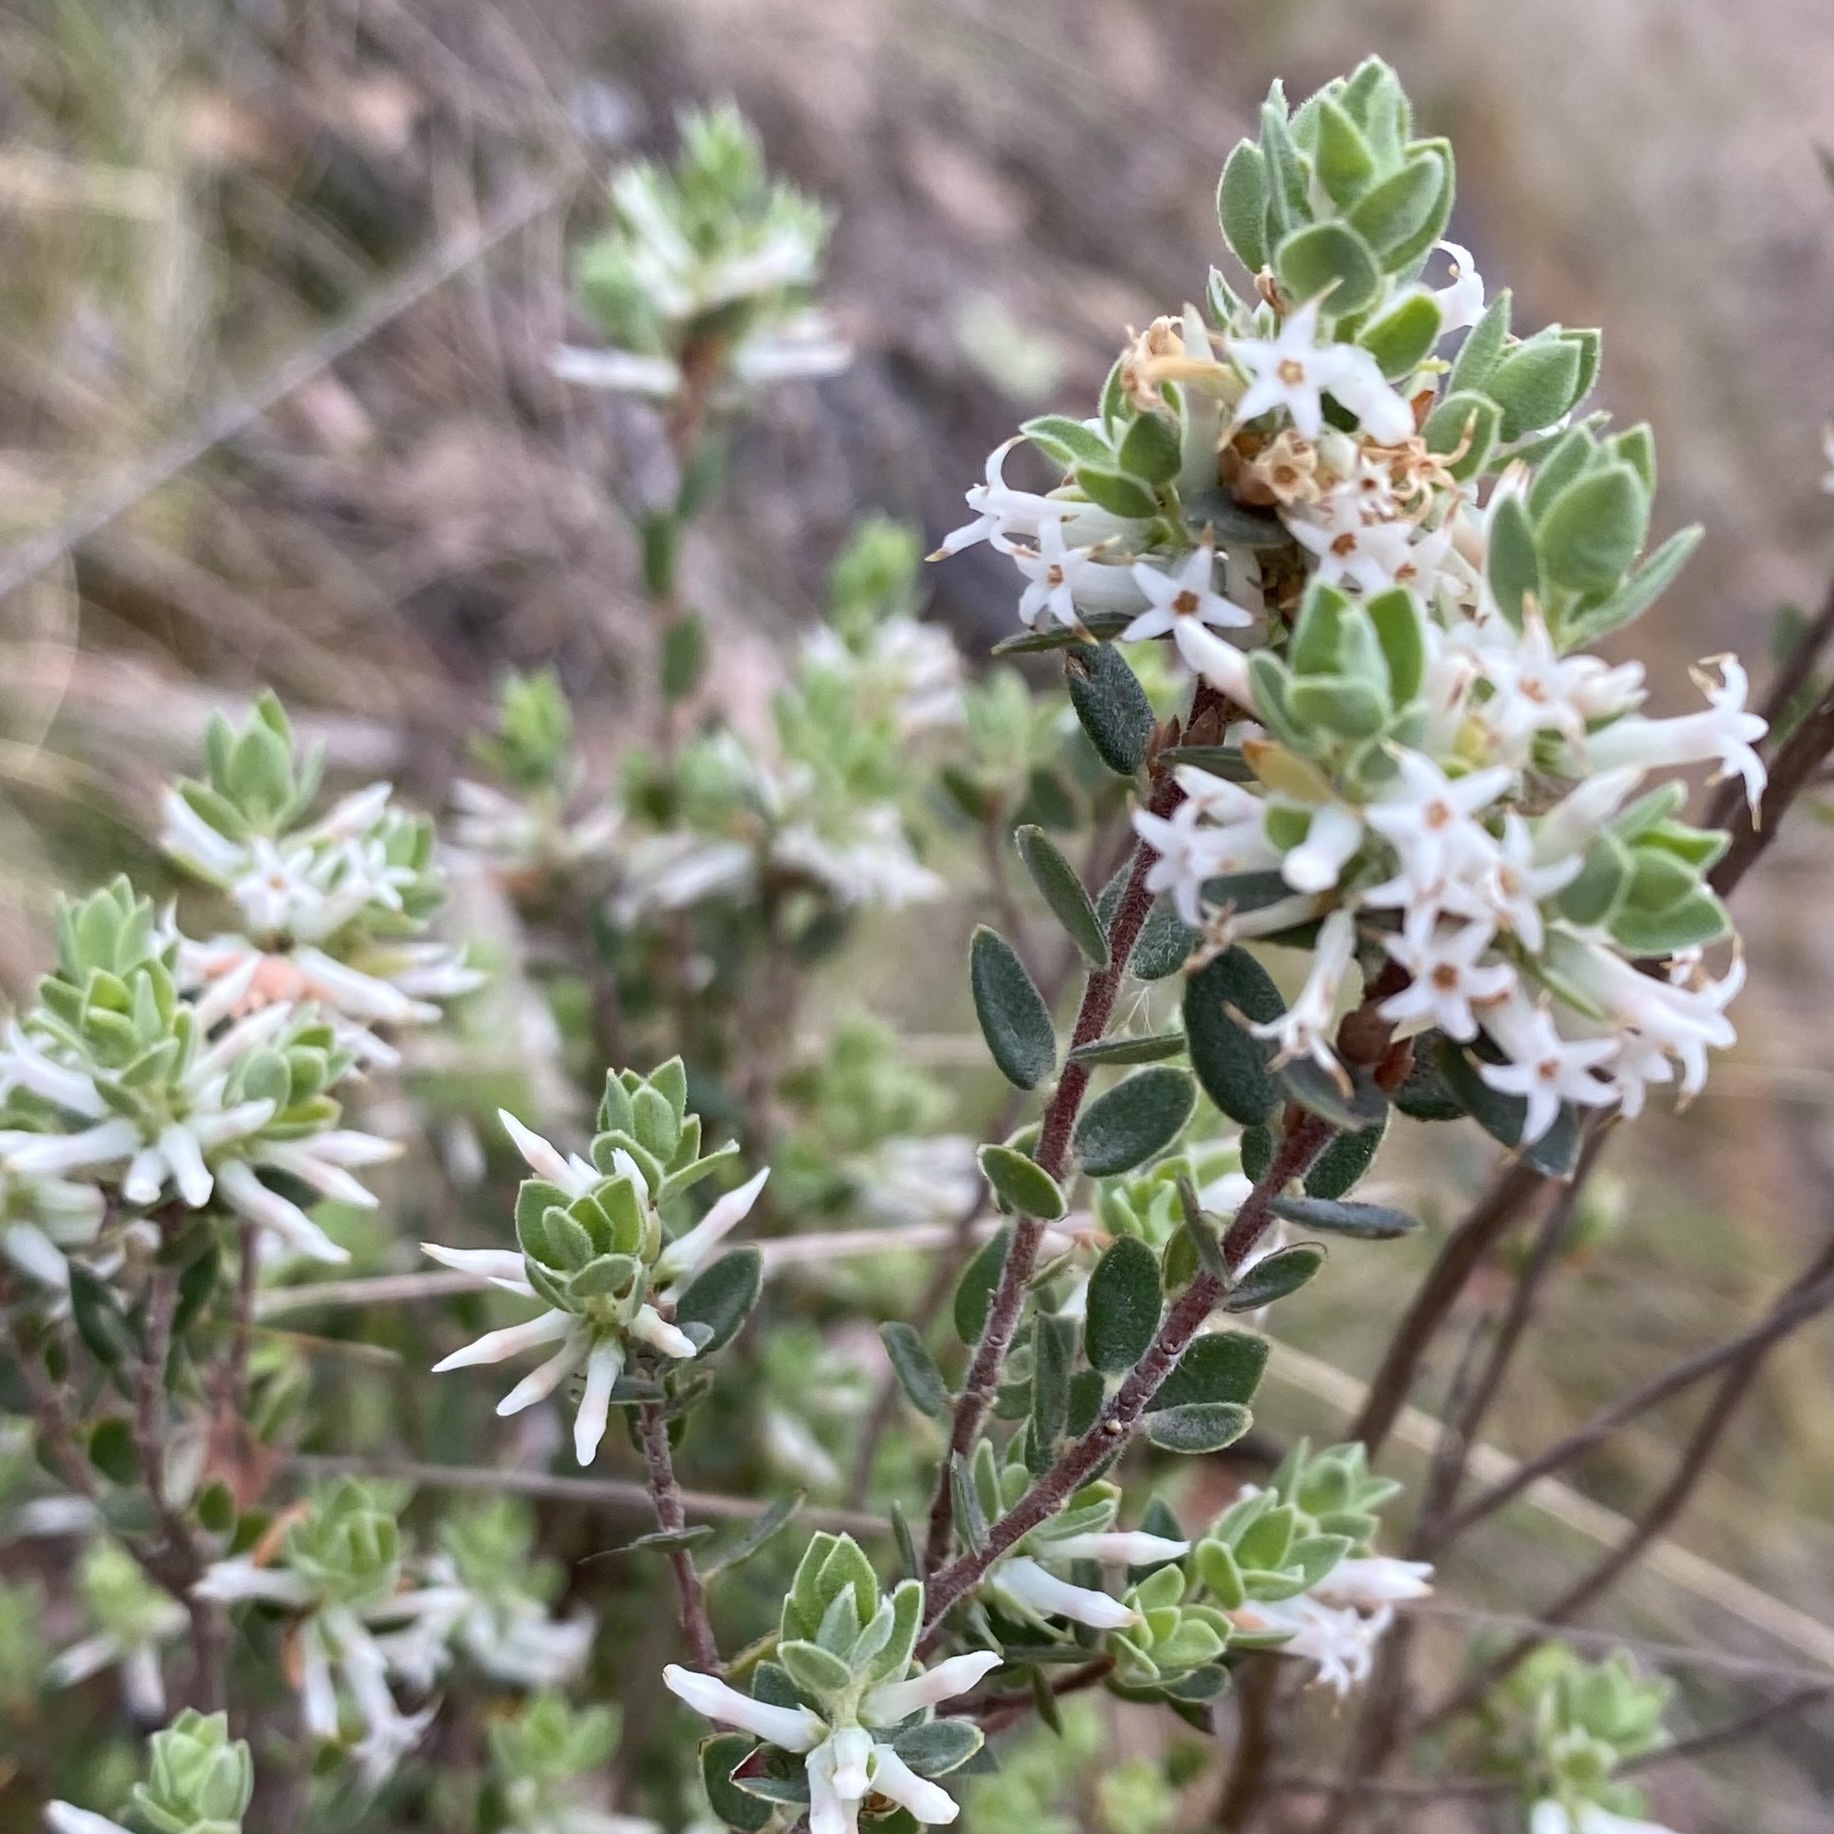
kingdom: Plantae
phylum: Tracheophyta
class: Magnoliopsida
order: Ericales
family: Ericaceae
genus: Brachyloma
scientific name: Brachyloma daphnoides
